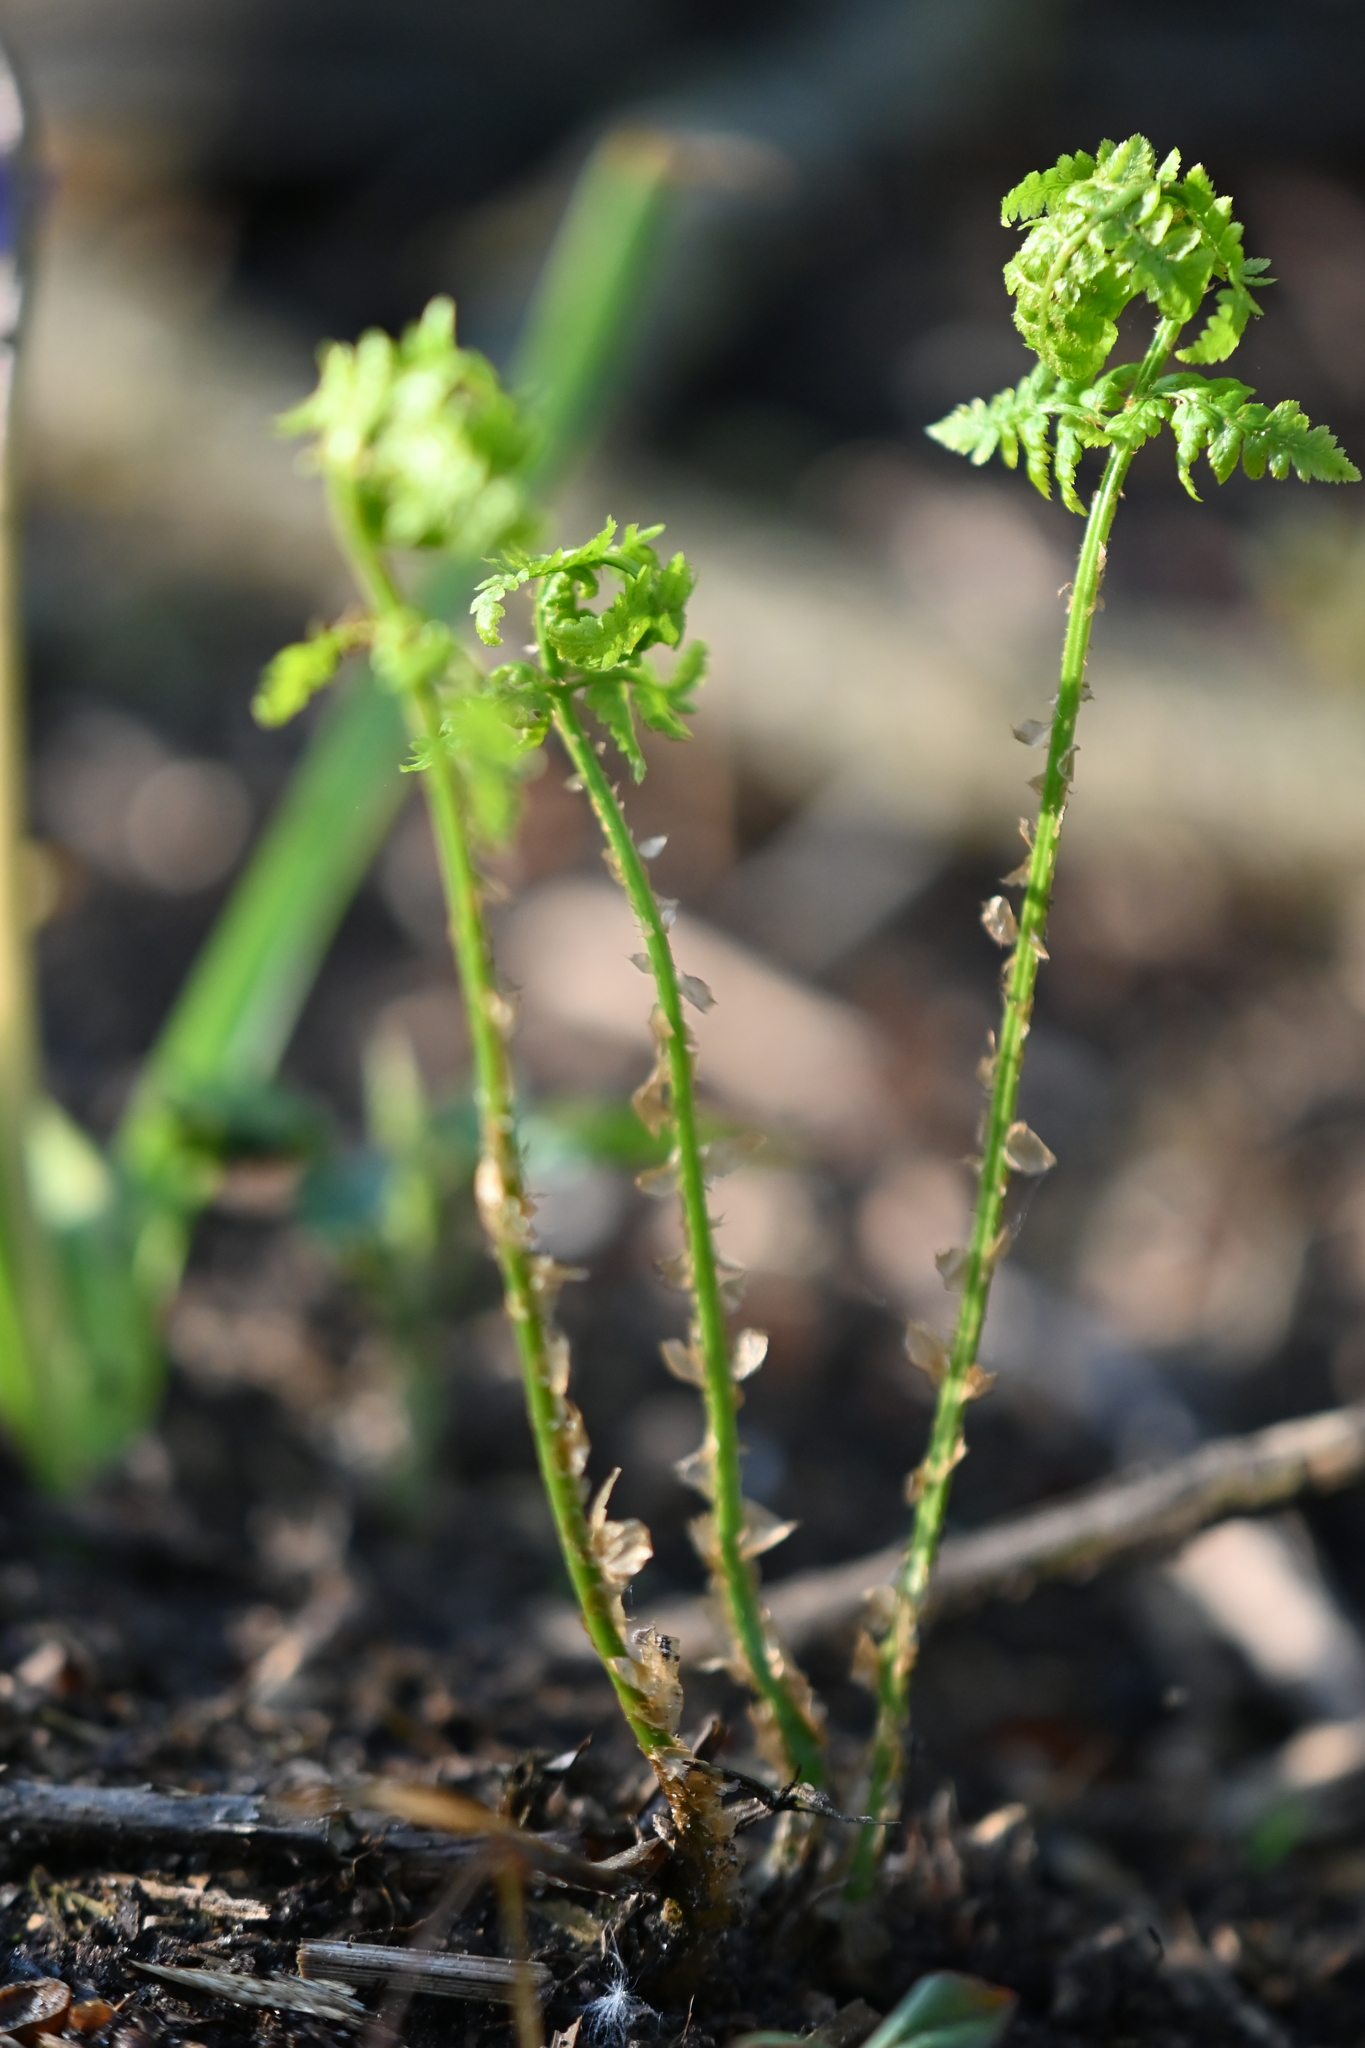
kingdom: Plantae
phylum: Tracheophyta
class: Polypodiopsida
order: Polypodiales
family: Dryopteridaceae
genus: Dryopteris
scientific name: Dryopteris carthusiana
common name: Narrow buckler-fern
